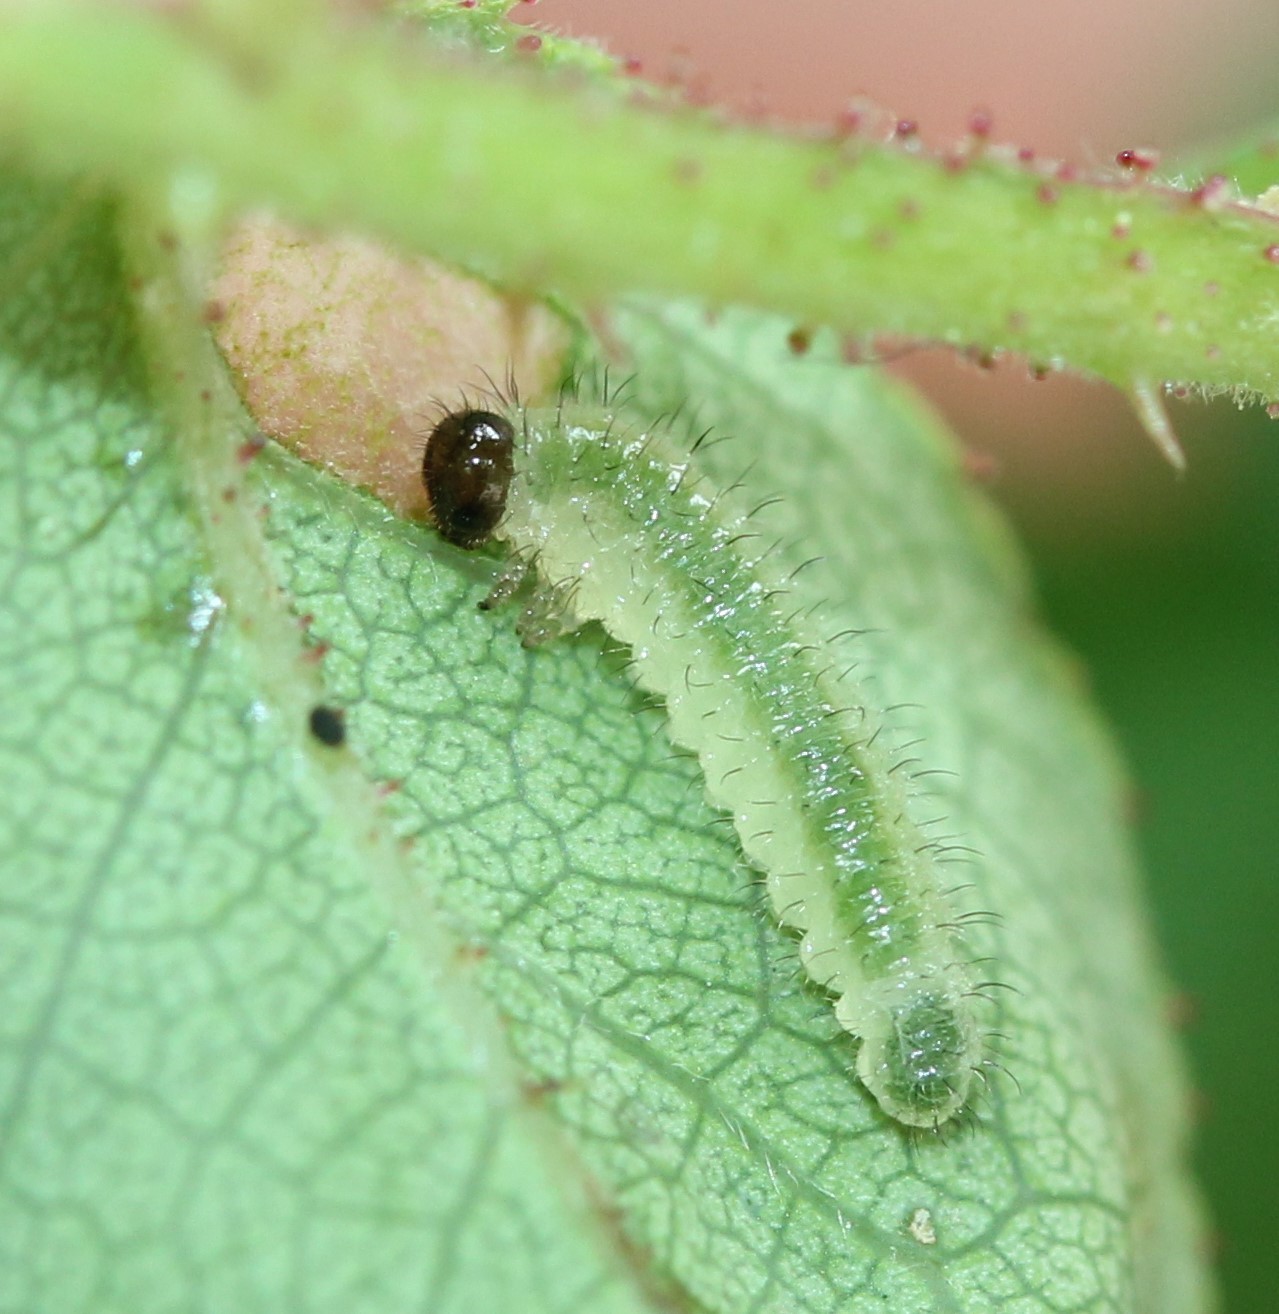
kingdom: Animalia
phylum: Arthropoda
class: Insecta
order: Hymenoptera
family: Tenthredinidae
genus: Cladius
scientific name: Cladius pectinicornis
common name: Sawfly
